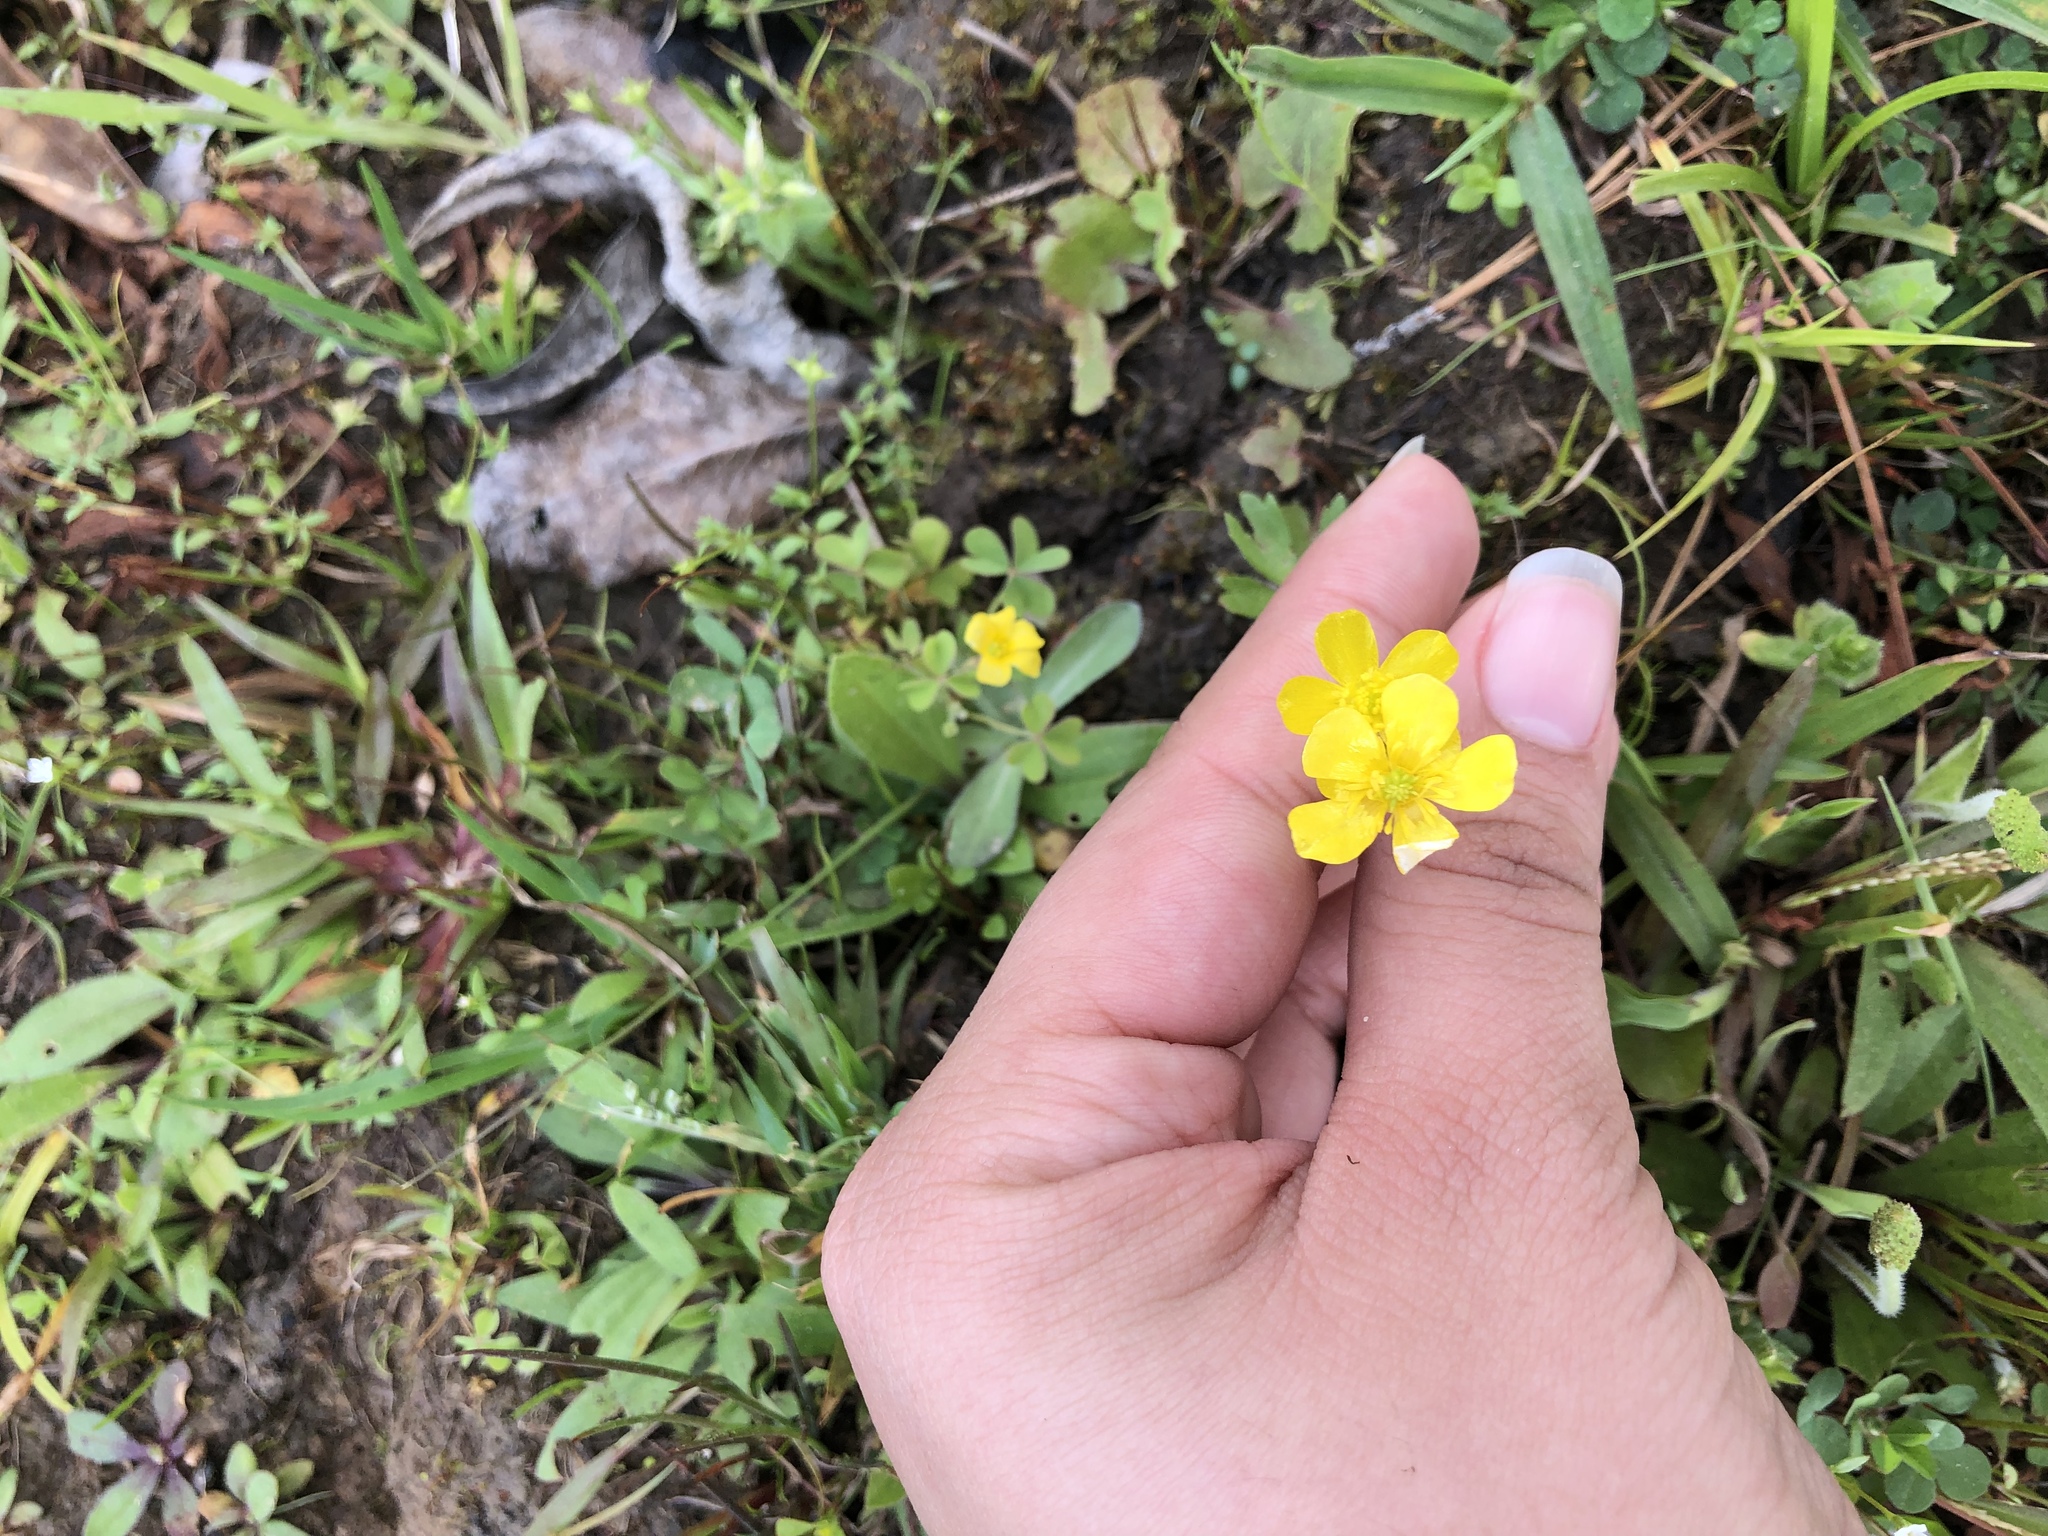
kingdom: Plantae
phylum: Tracheophyta
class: Magnoliopsida
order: Ranunculales
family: Ranunculaceae
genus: Ranunculus
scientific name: Ranunculus sardous
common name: Hairy buttercup
